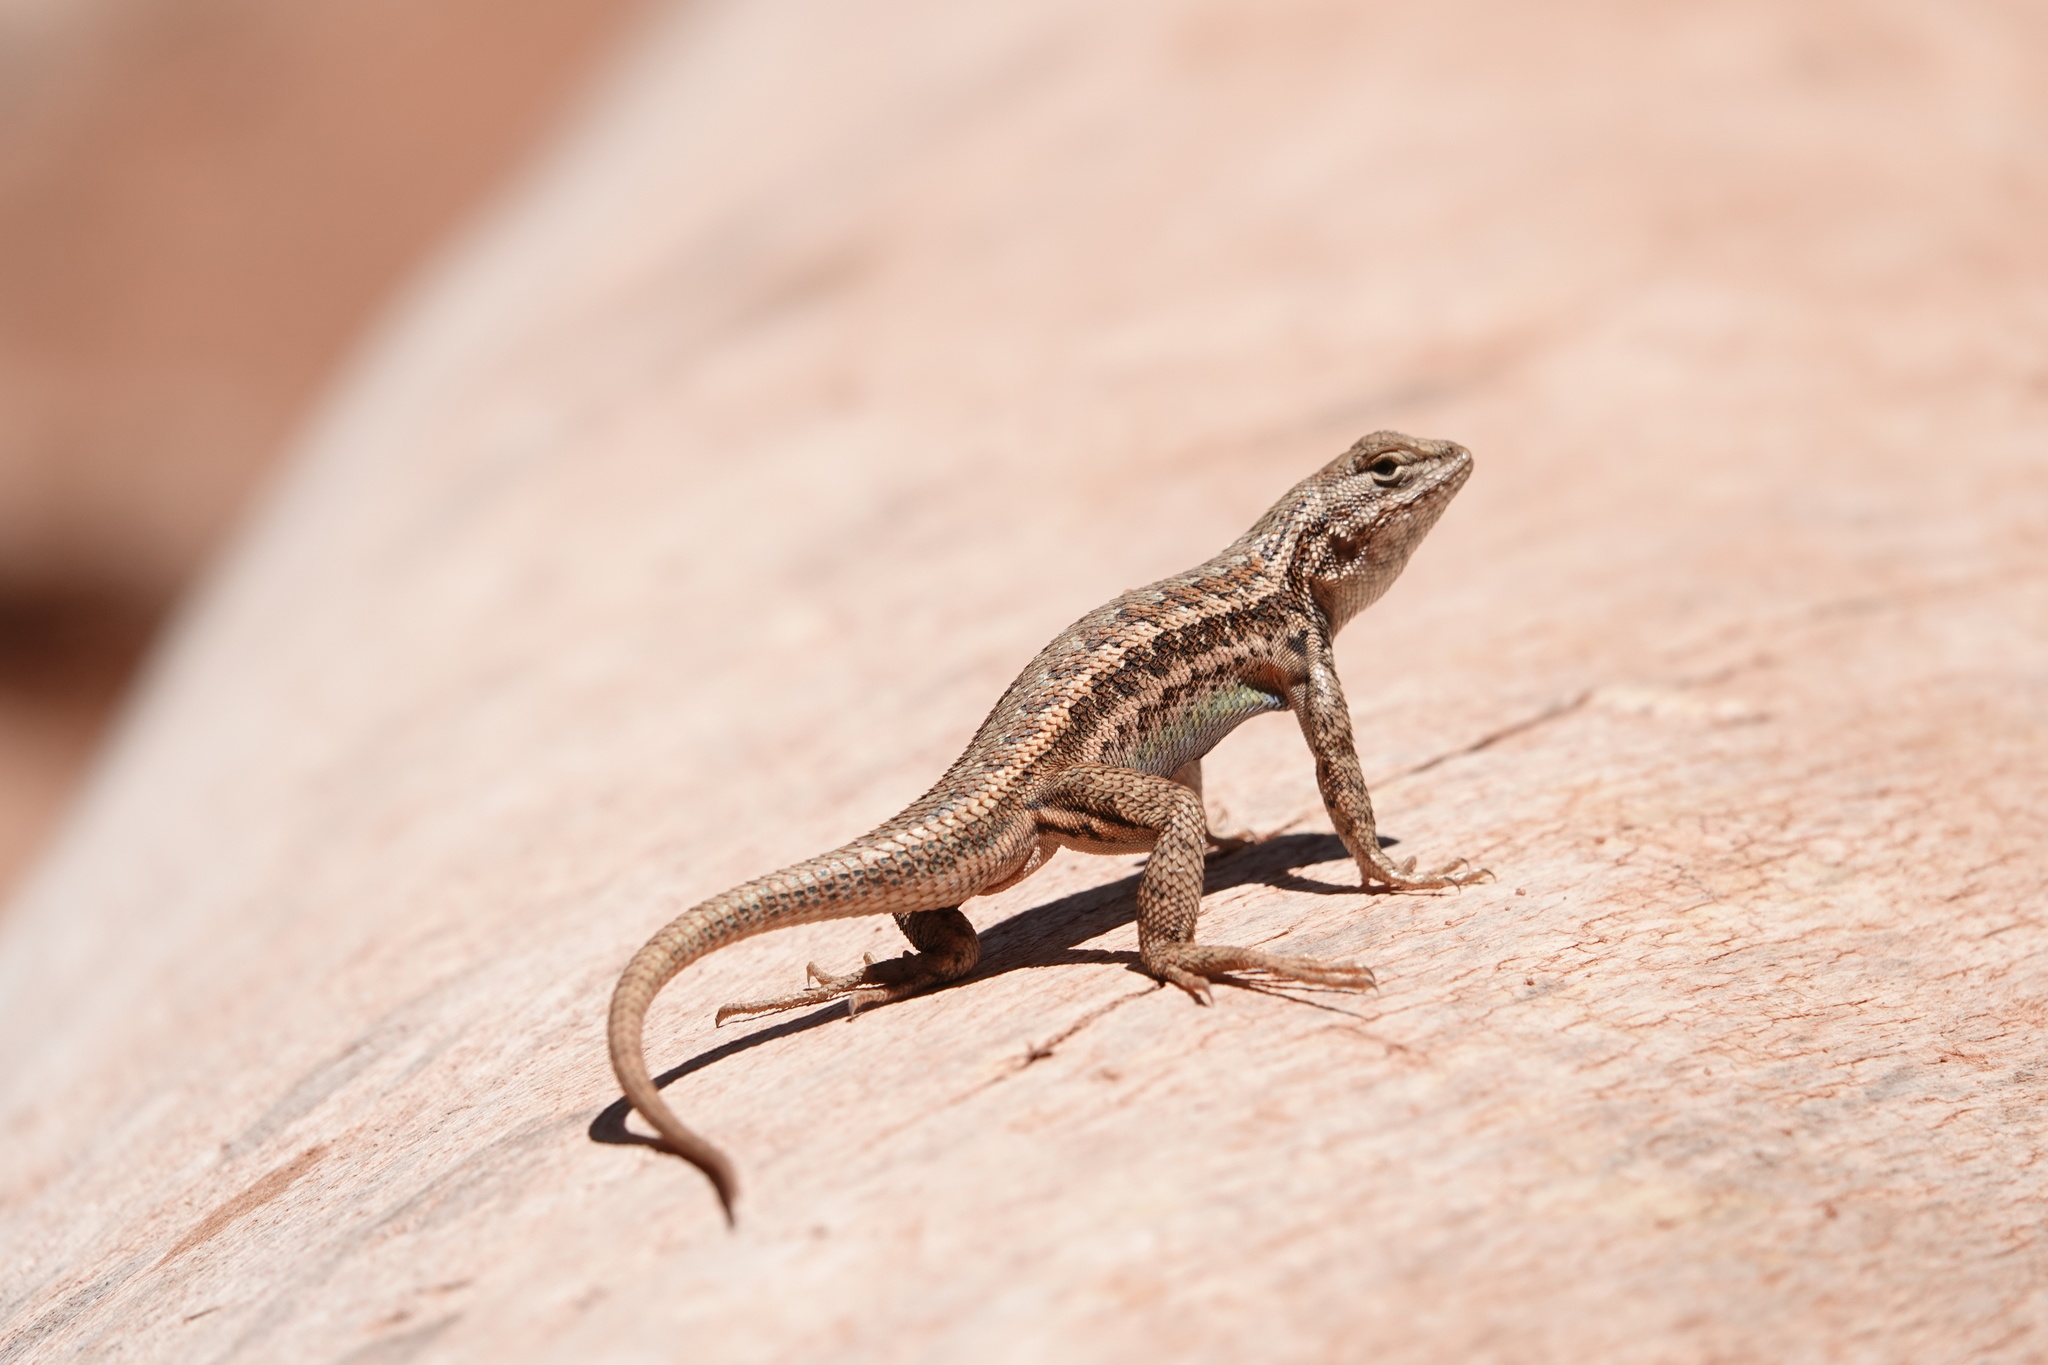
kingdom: Animalia
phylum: Chordata
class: Squamata
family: Phrynosomatidae
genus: Sceloporus
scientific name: Sceloporus graciosus
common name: Sagebrush lizard
